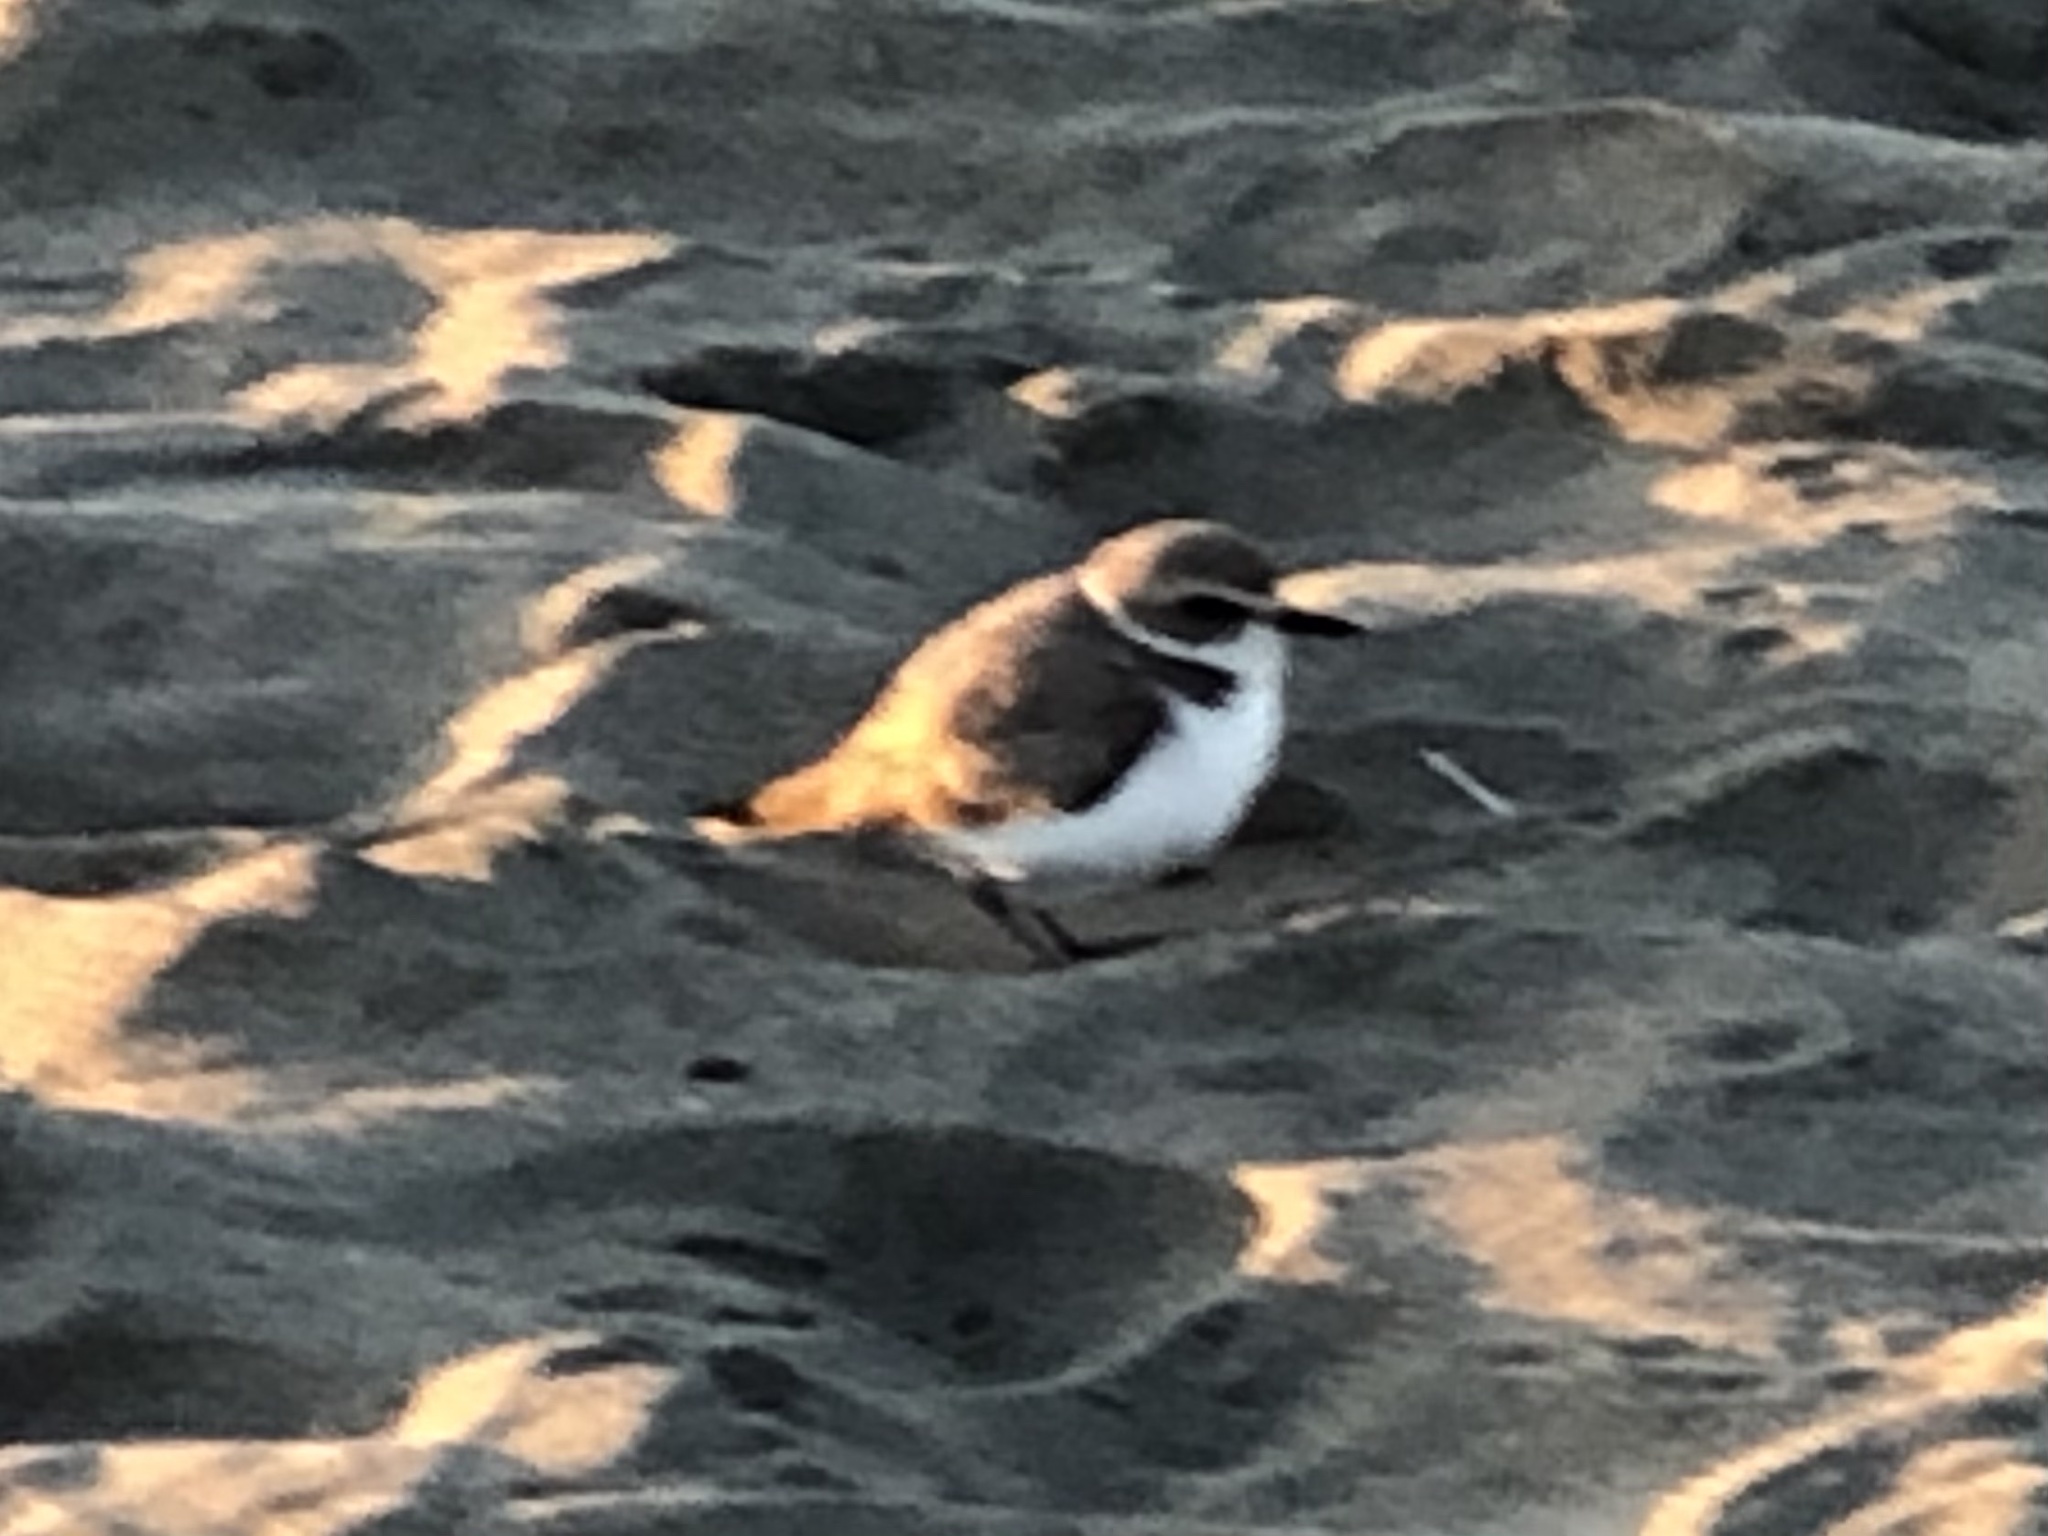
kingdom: Animalia
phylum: Chordata
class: Aves
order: Charadriiformes
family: Charadriidae
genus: Anarhynchus
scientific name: Anarhynchus
